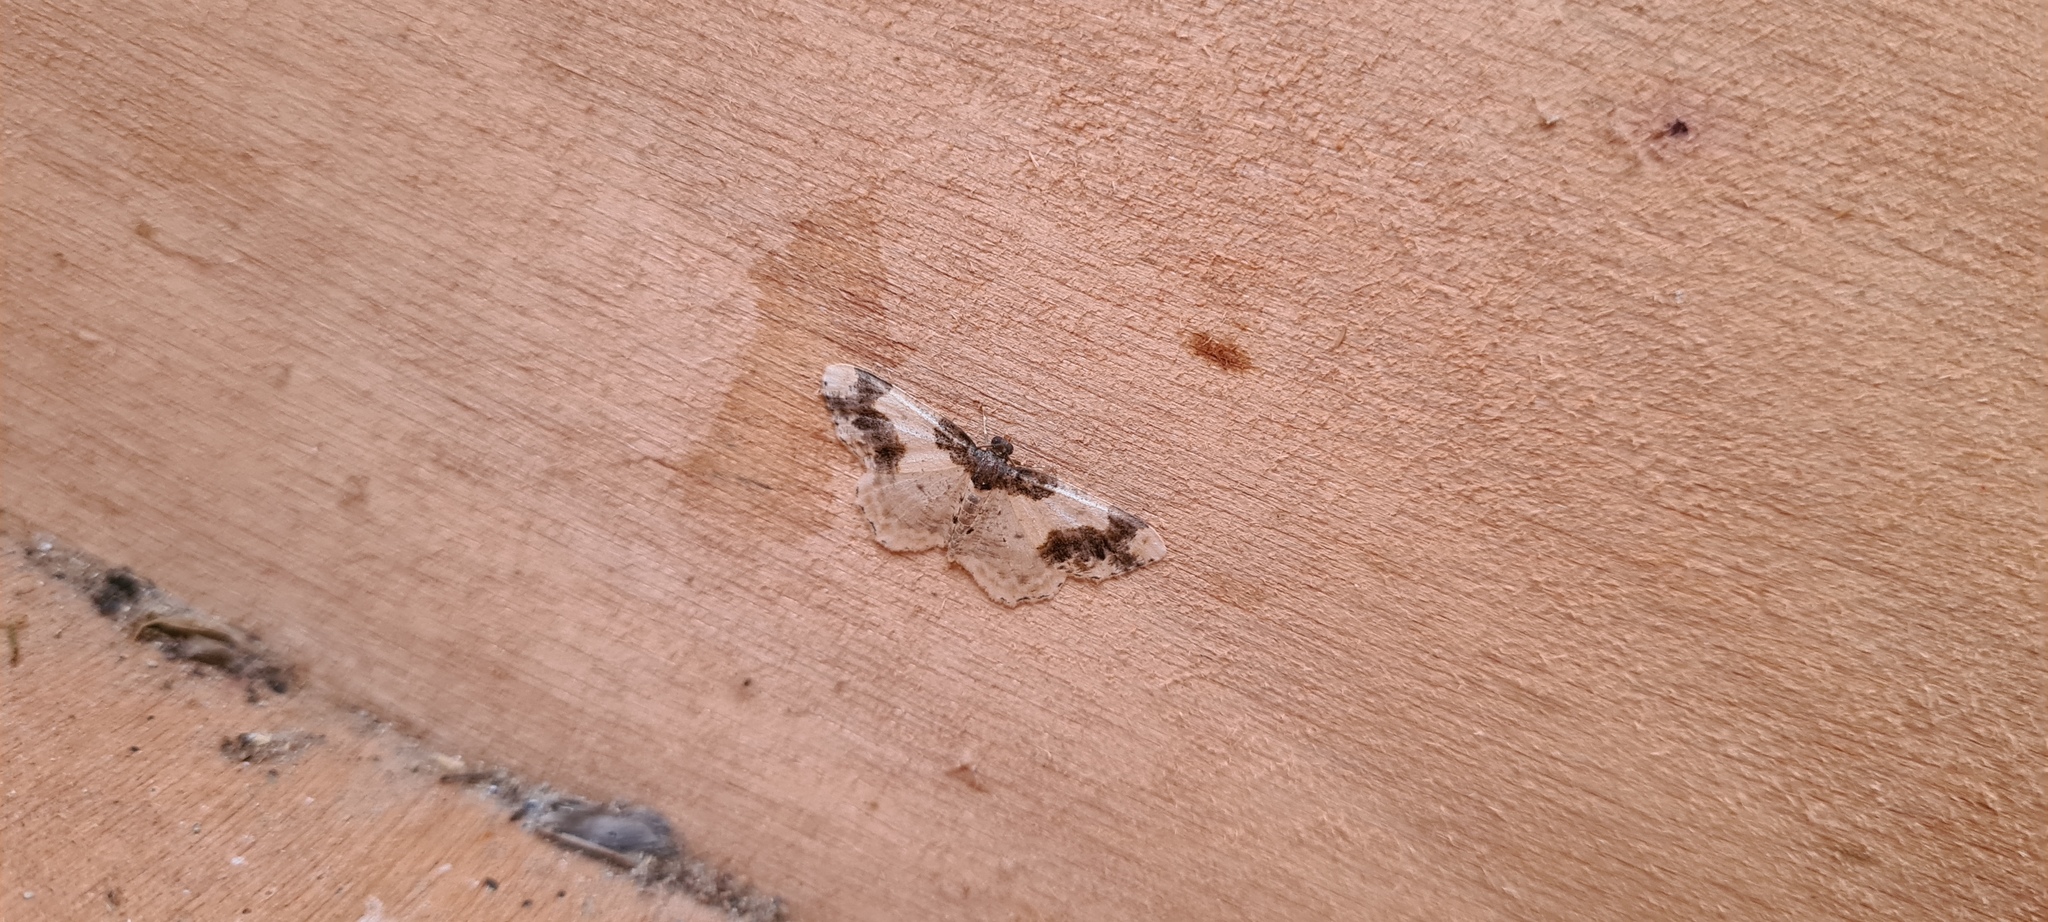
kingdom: Animalia
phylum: Arthropoda
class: Insecta
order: Lepidoptera
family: Geometridae
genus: Ligdia
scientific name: Ligdia adustata
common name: Scorched carpet
